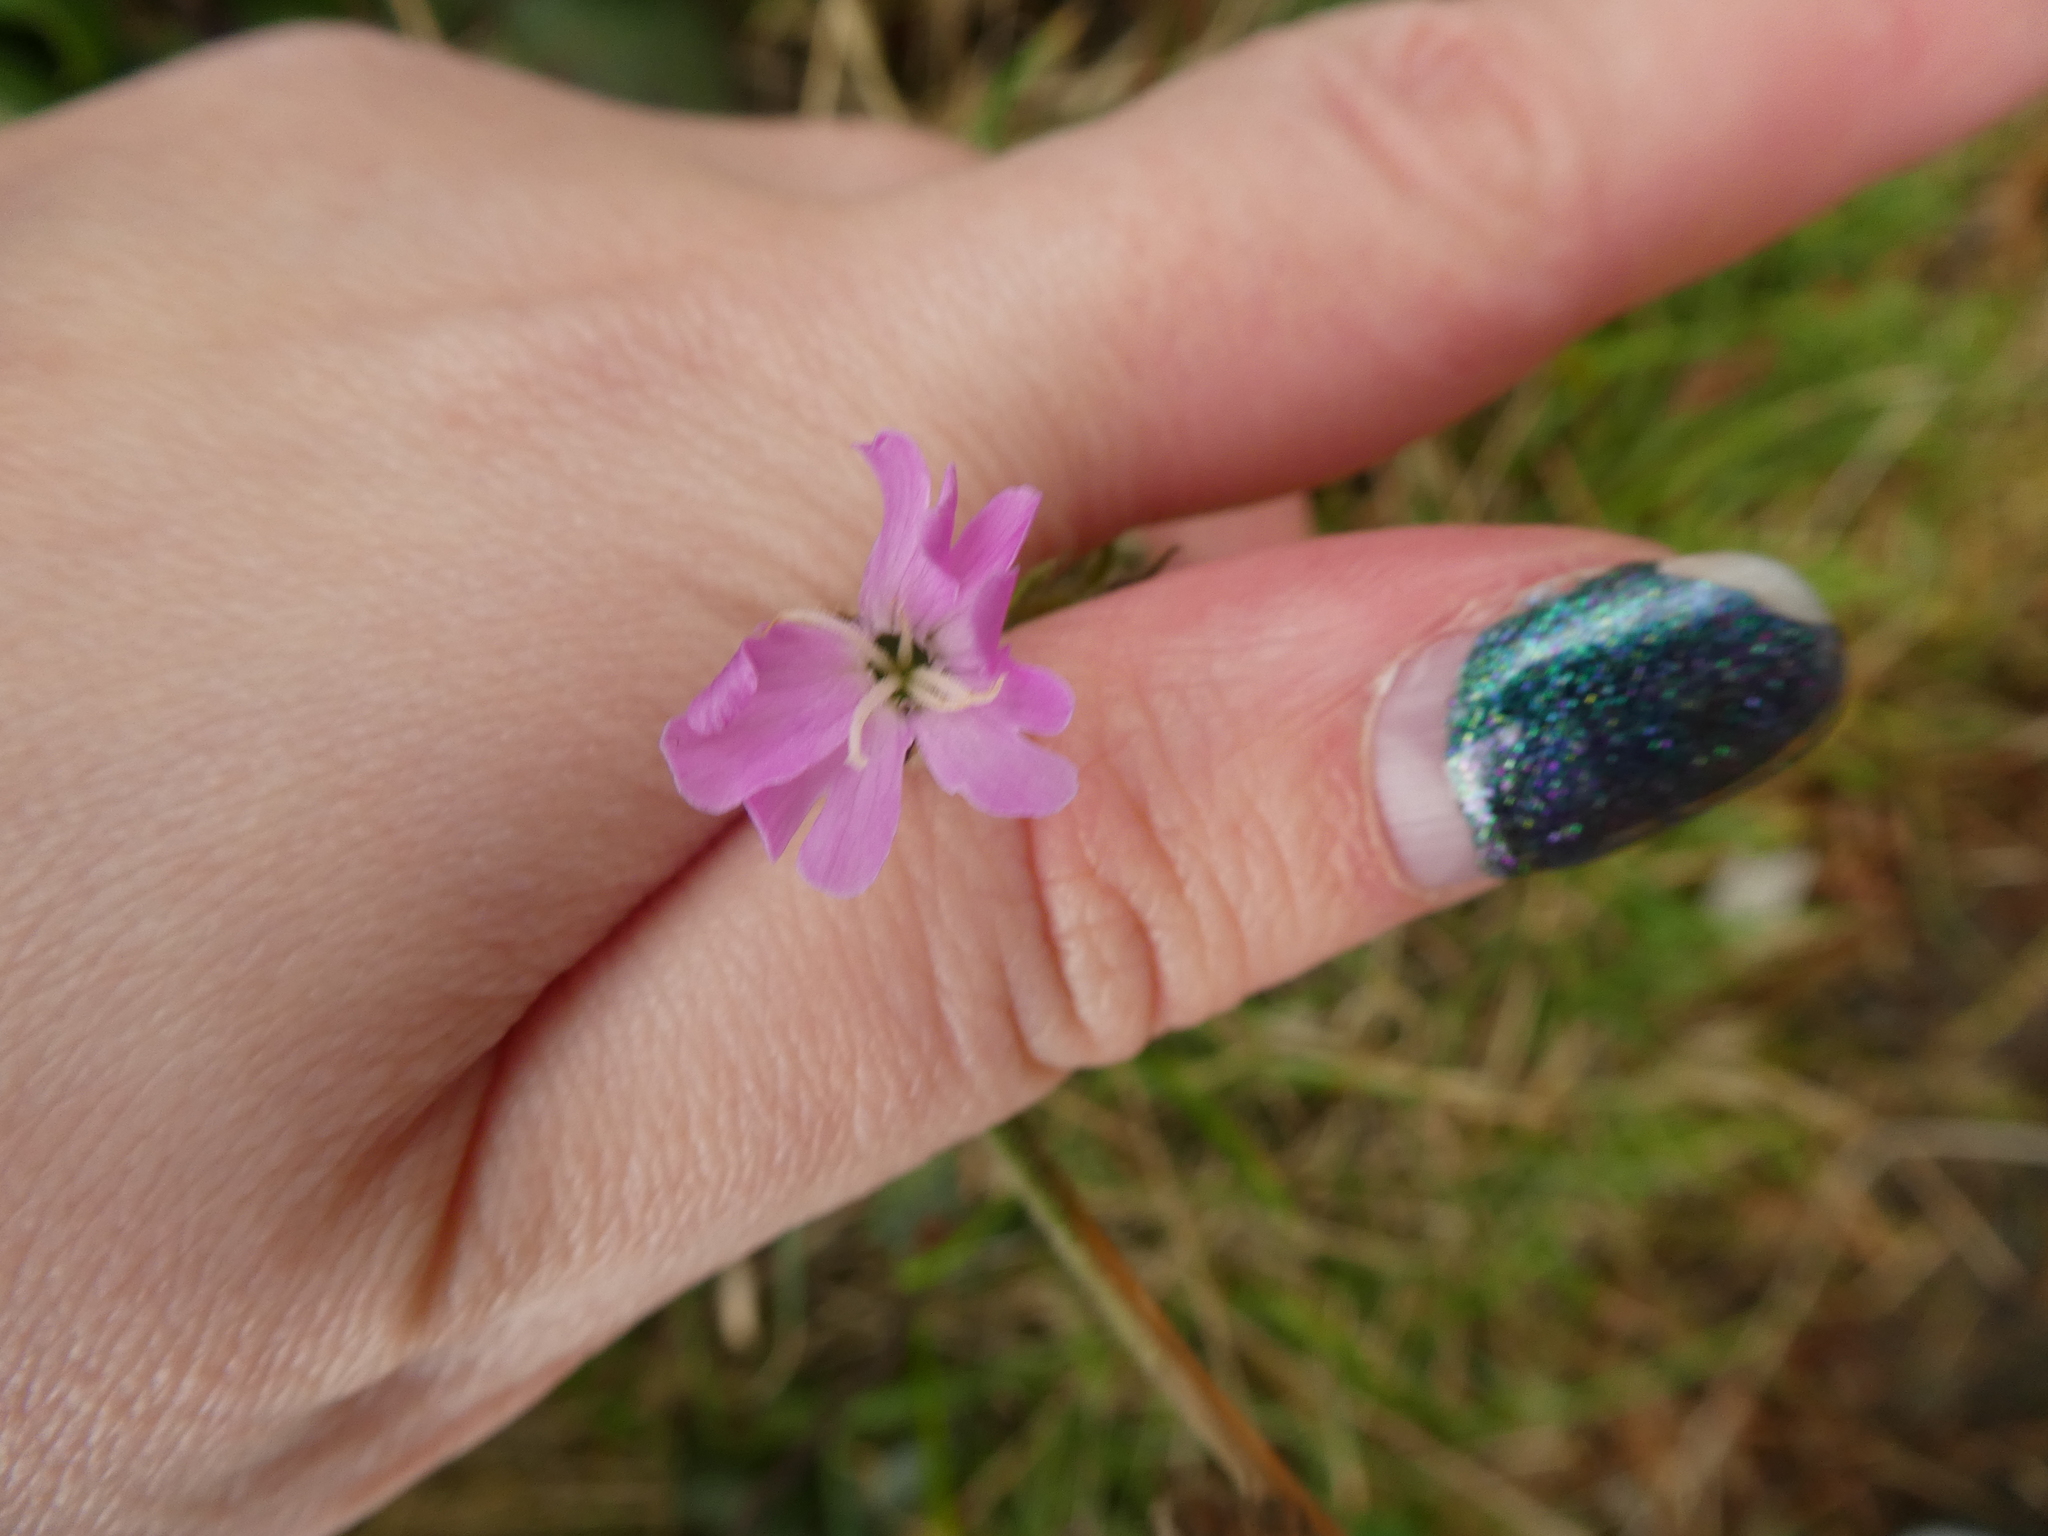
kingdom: Plantae
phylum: Tracheophyta
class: Magnoliopsida
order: Caryophyllales
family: Caryophyllaceae
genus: Silene
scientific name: Silene dioica
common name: Red campion
